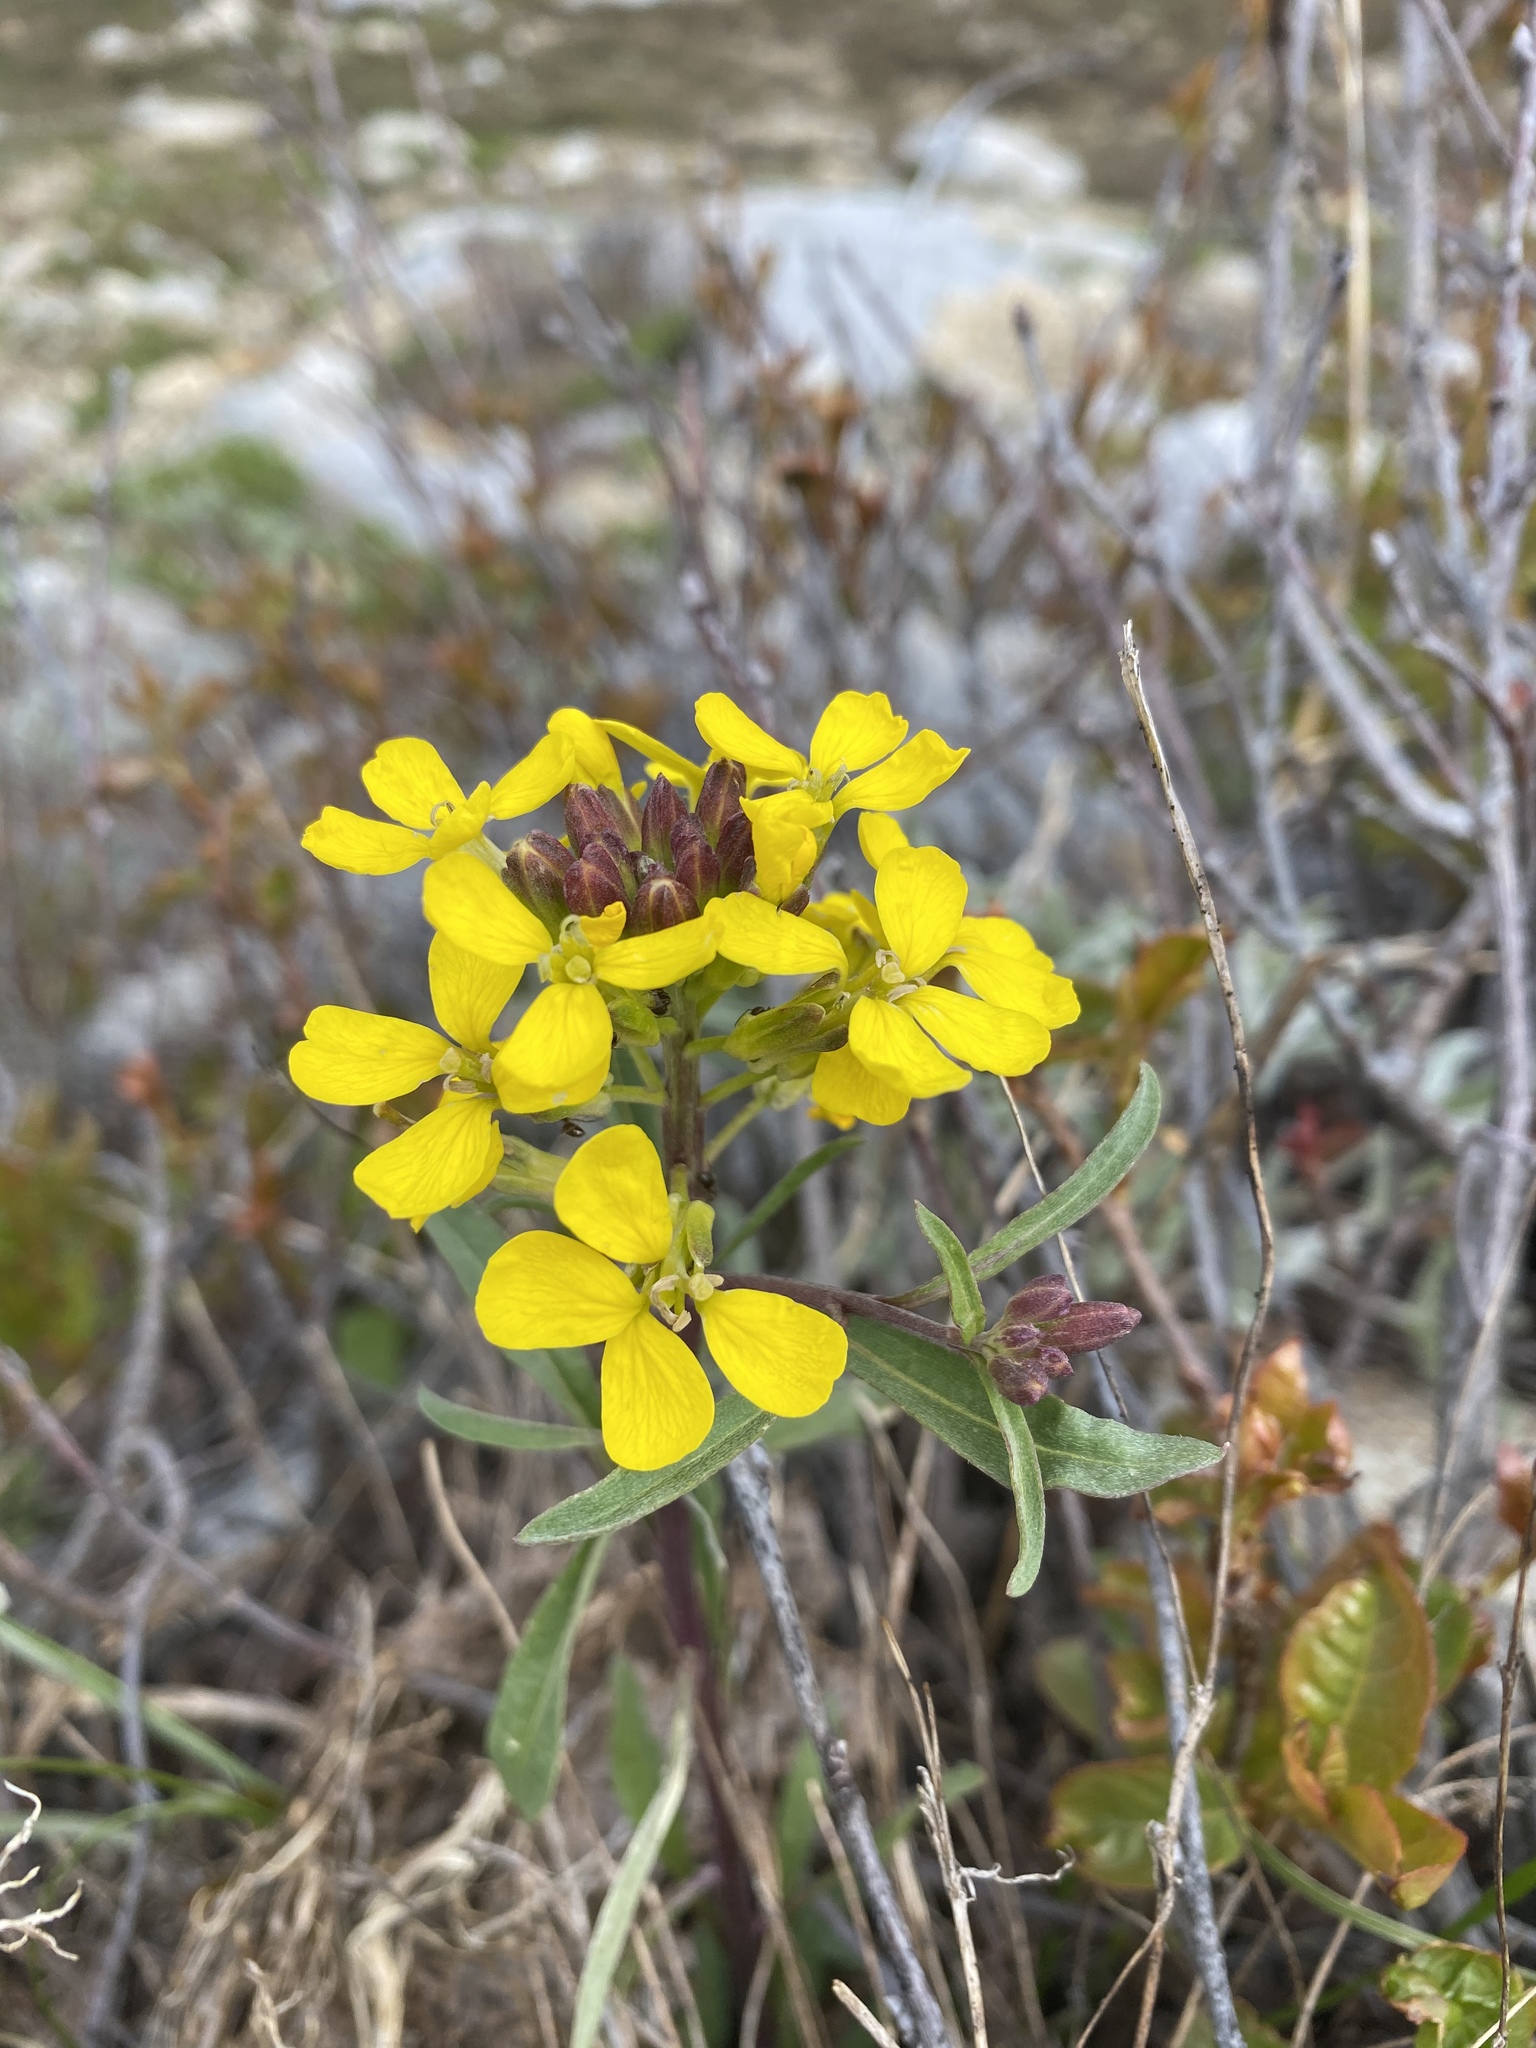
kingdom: Plantae
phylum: Tracheophyta
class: Magnoliopsida
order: Brassicales
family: Brassicaceae
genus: Erysimum
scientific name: Erysimum capitatum
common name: Western wallflower
